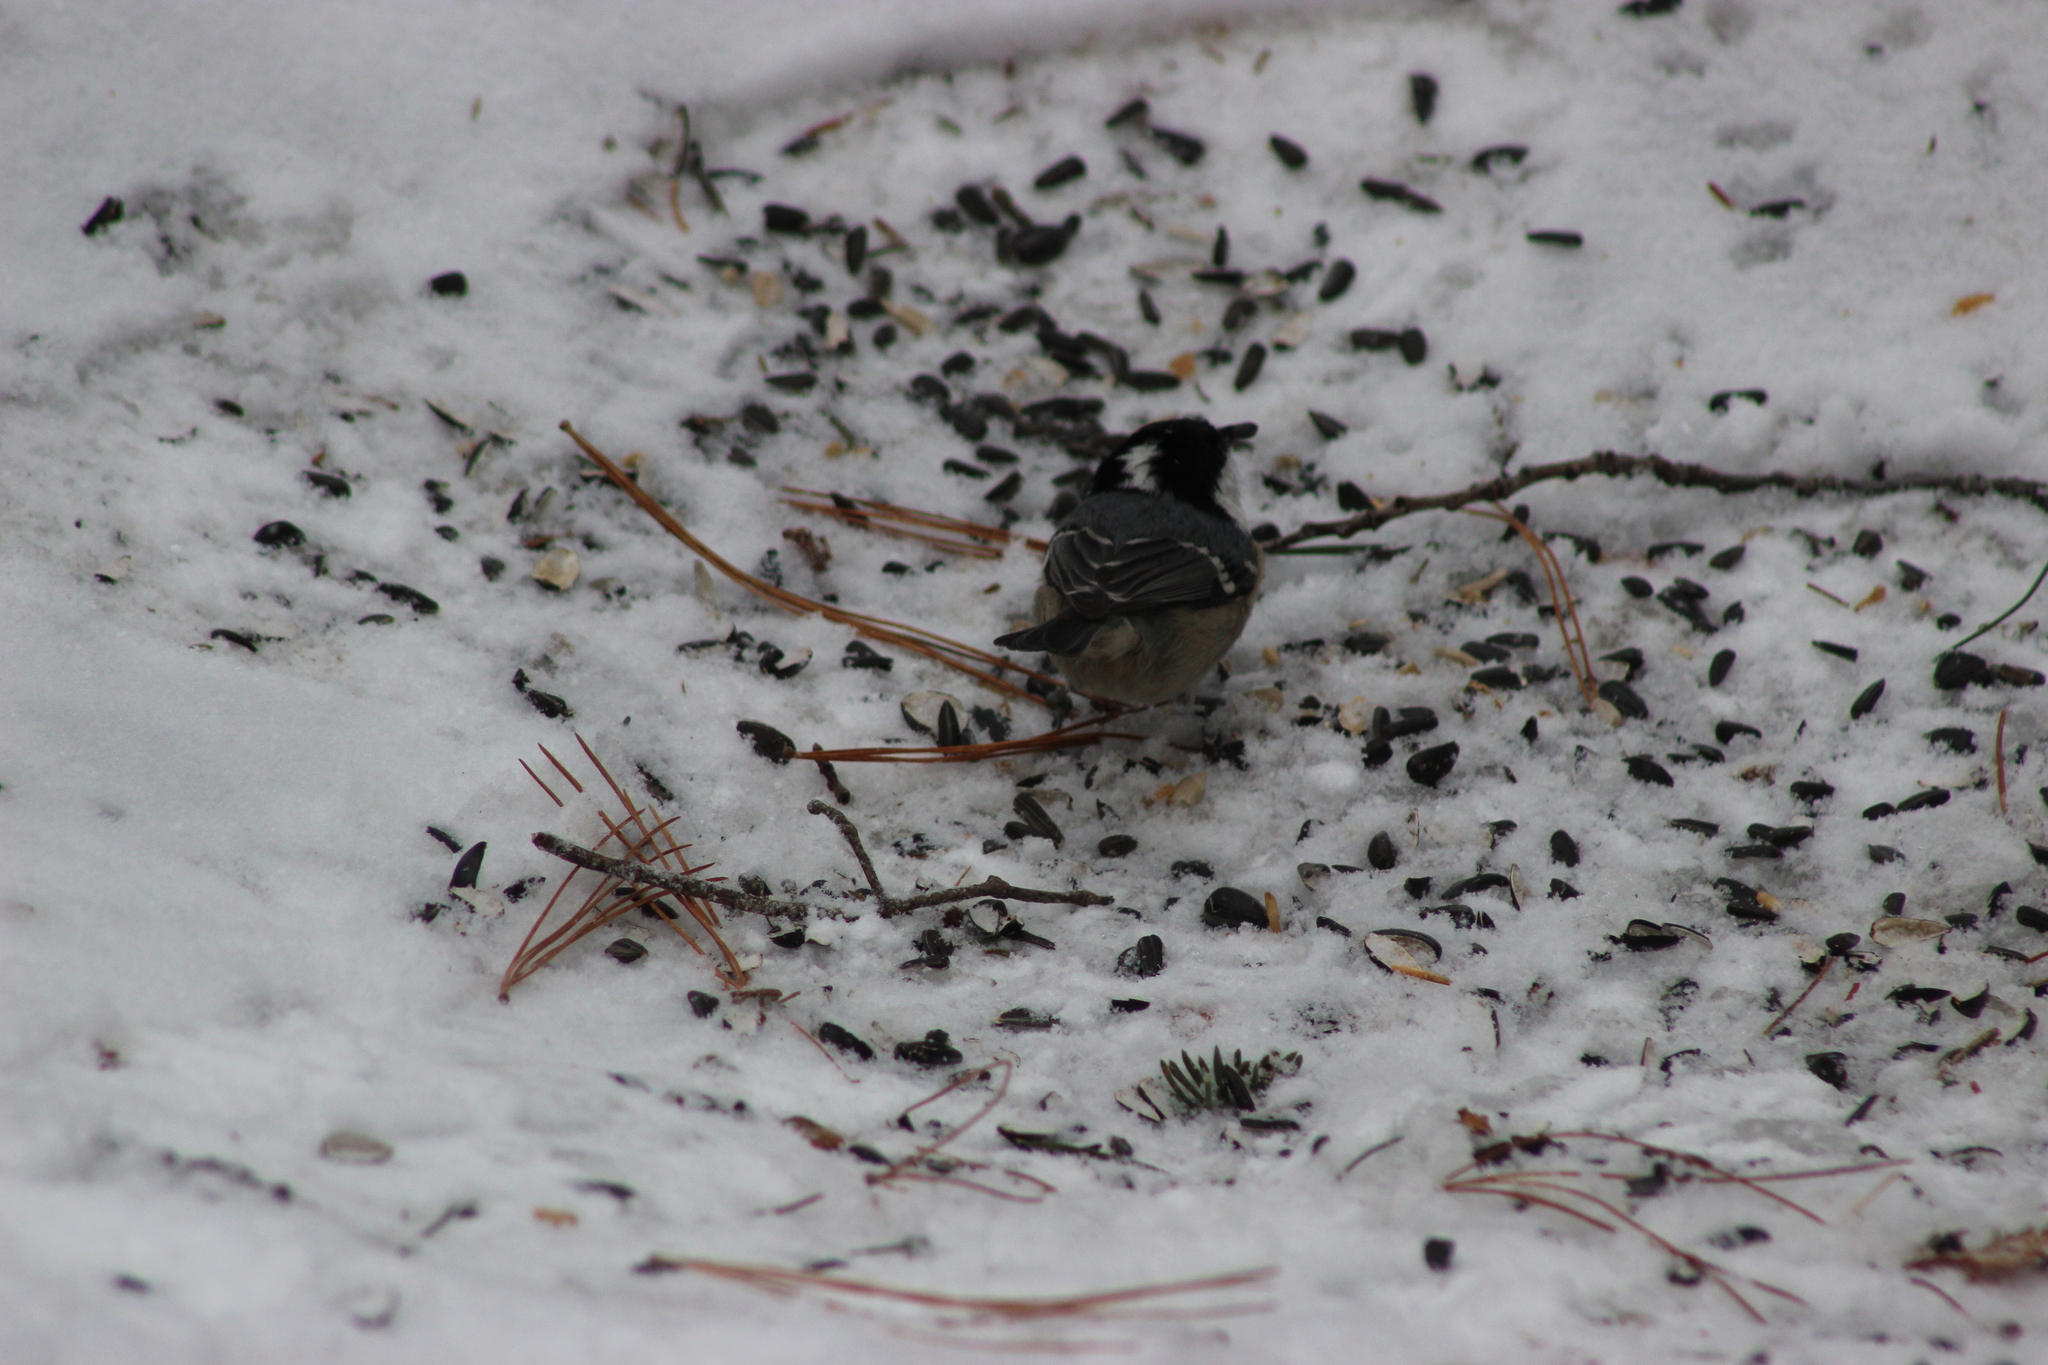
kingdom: Animalia
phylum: Chordata
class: Aves
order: Passeriformes
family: Paridae
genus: Periparus
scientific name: Periparus ater
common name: Coal tit
